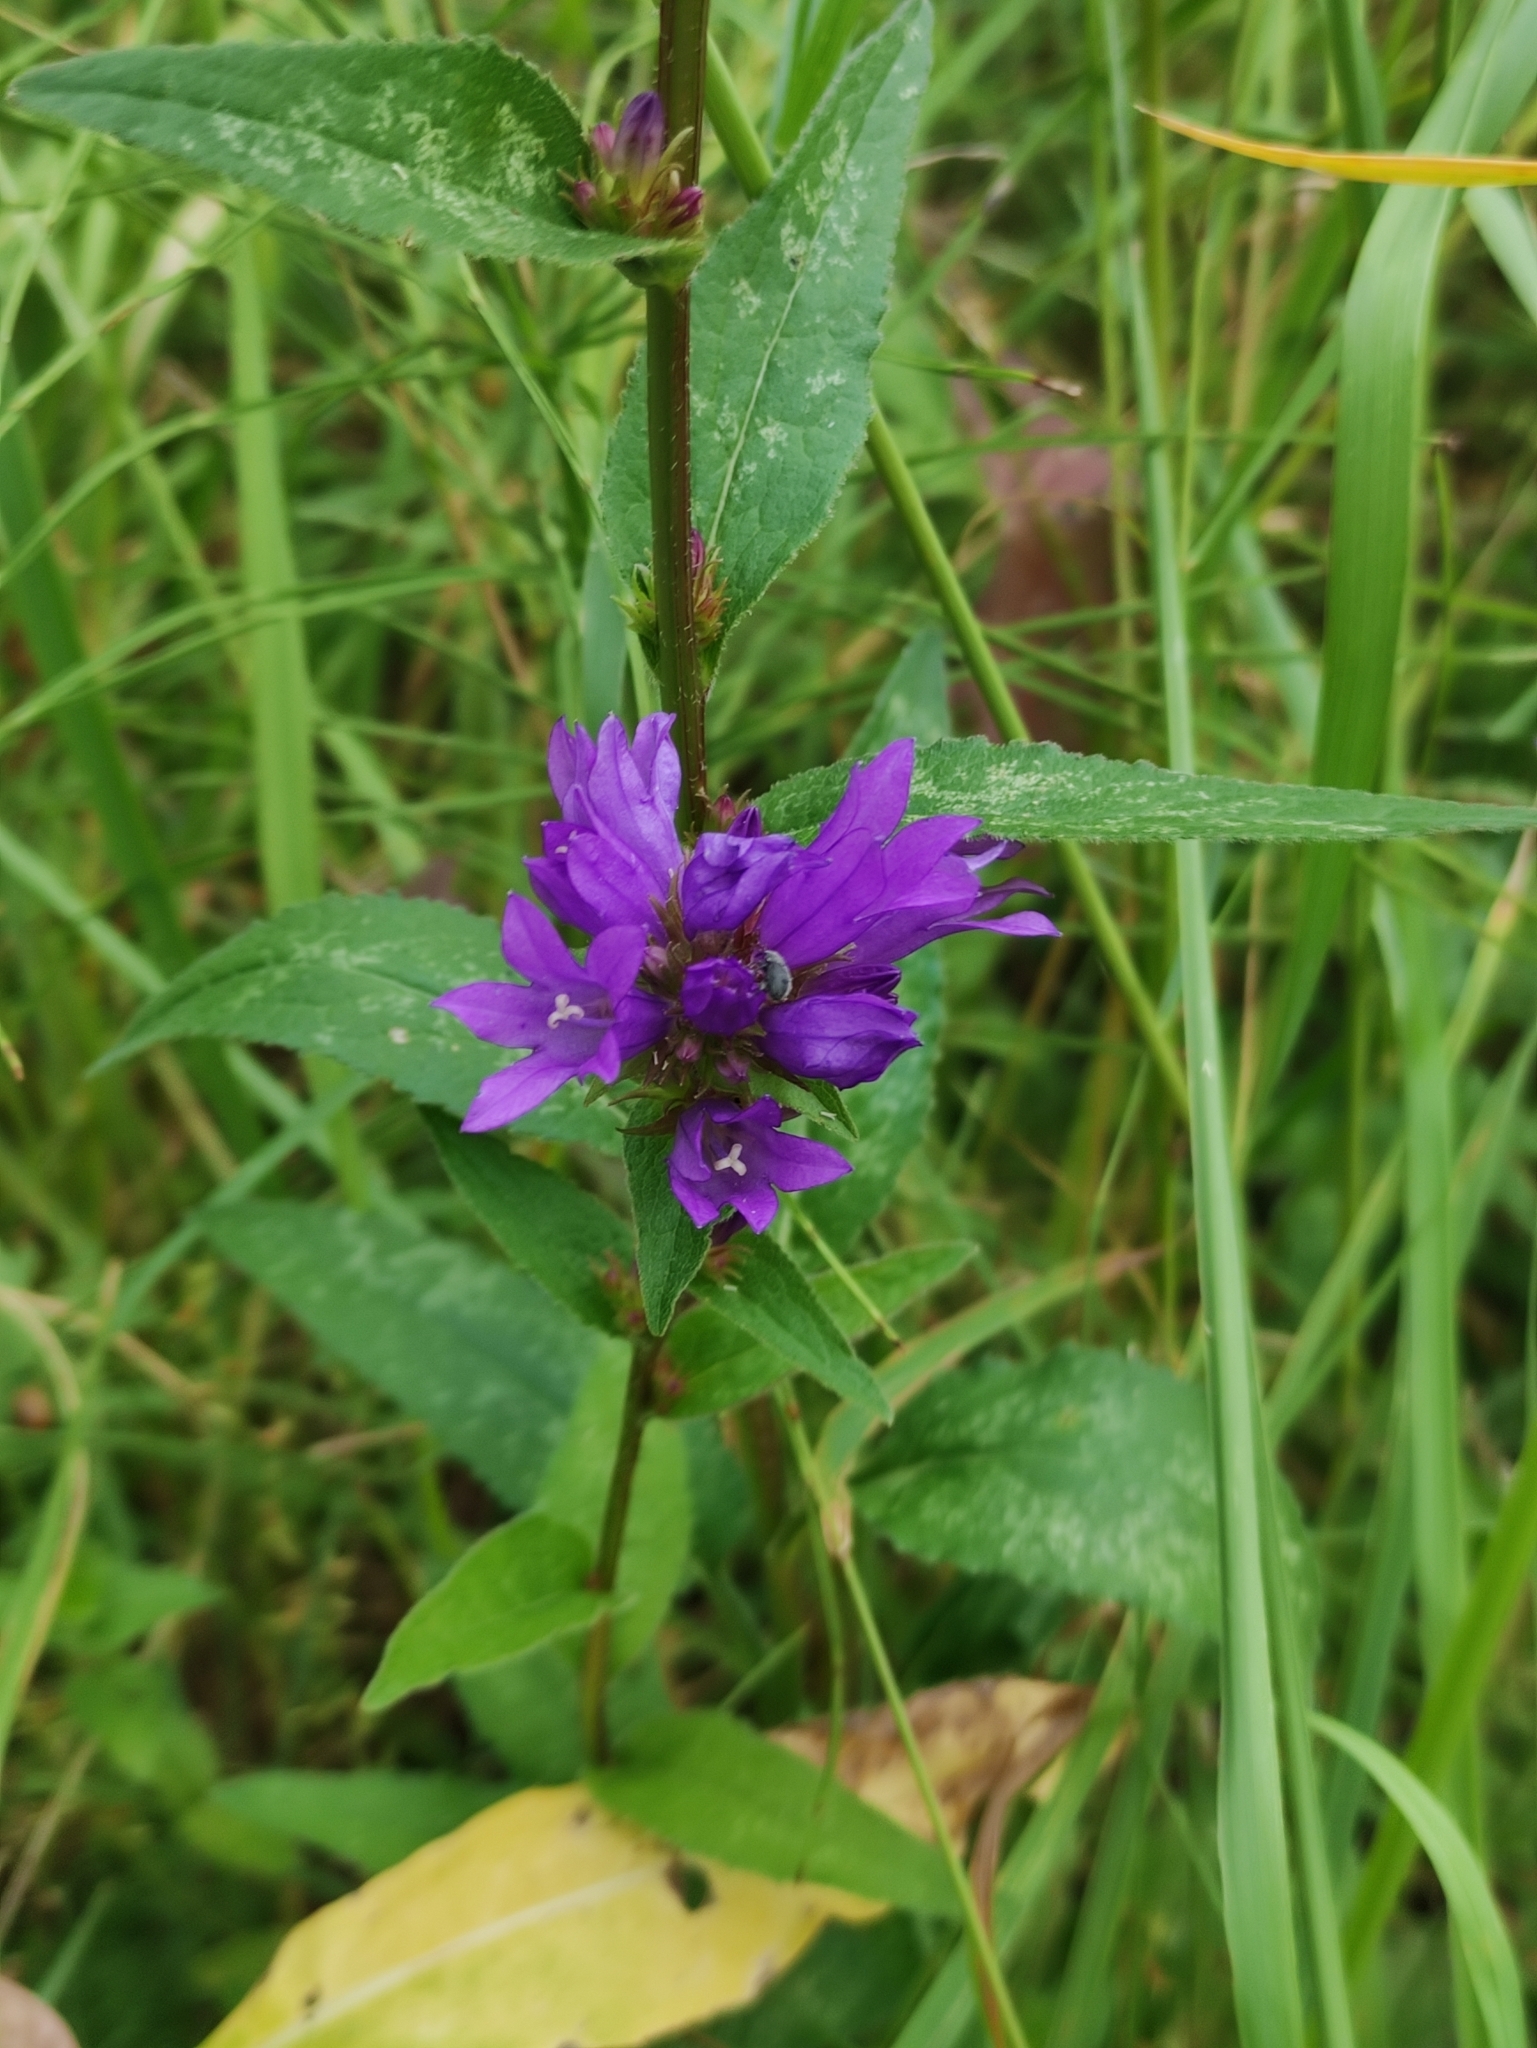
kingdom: Plantae
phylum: Tracheophyta
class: Magnoliopsida
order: Asterales
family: Campanulaceae
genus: Campanula
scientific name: Campanula glomerata
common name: Clustered bellflower
